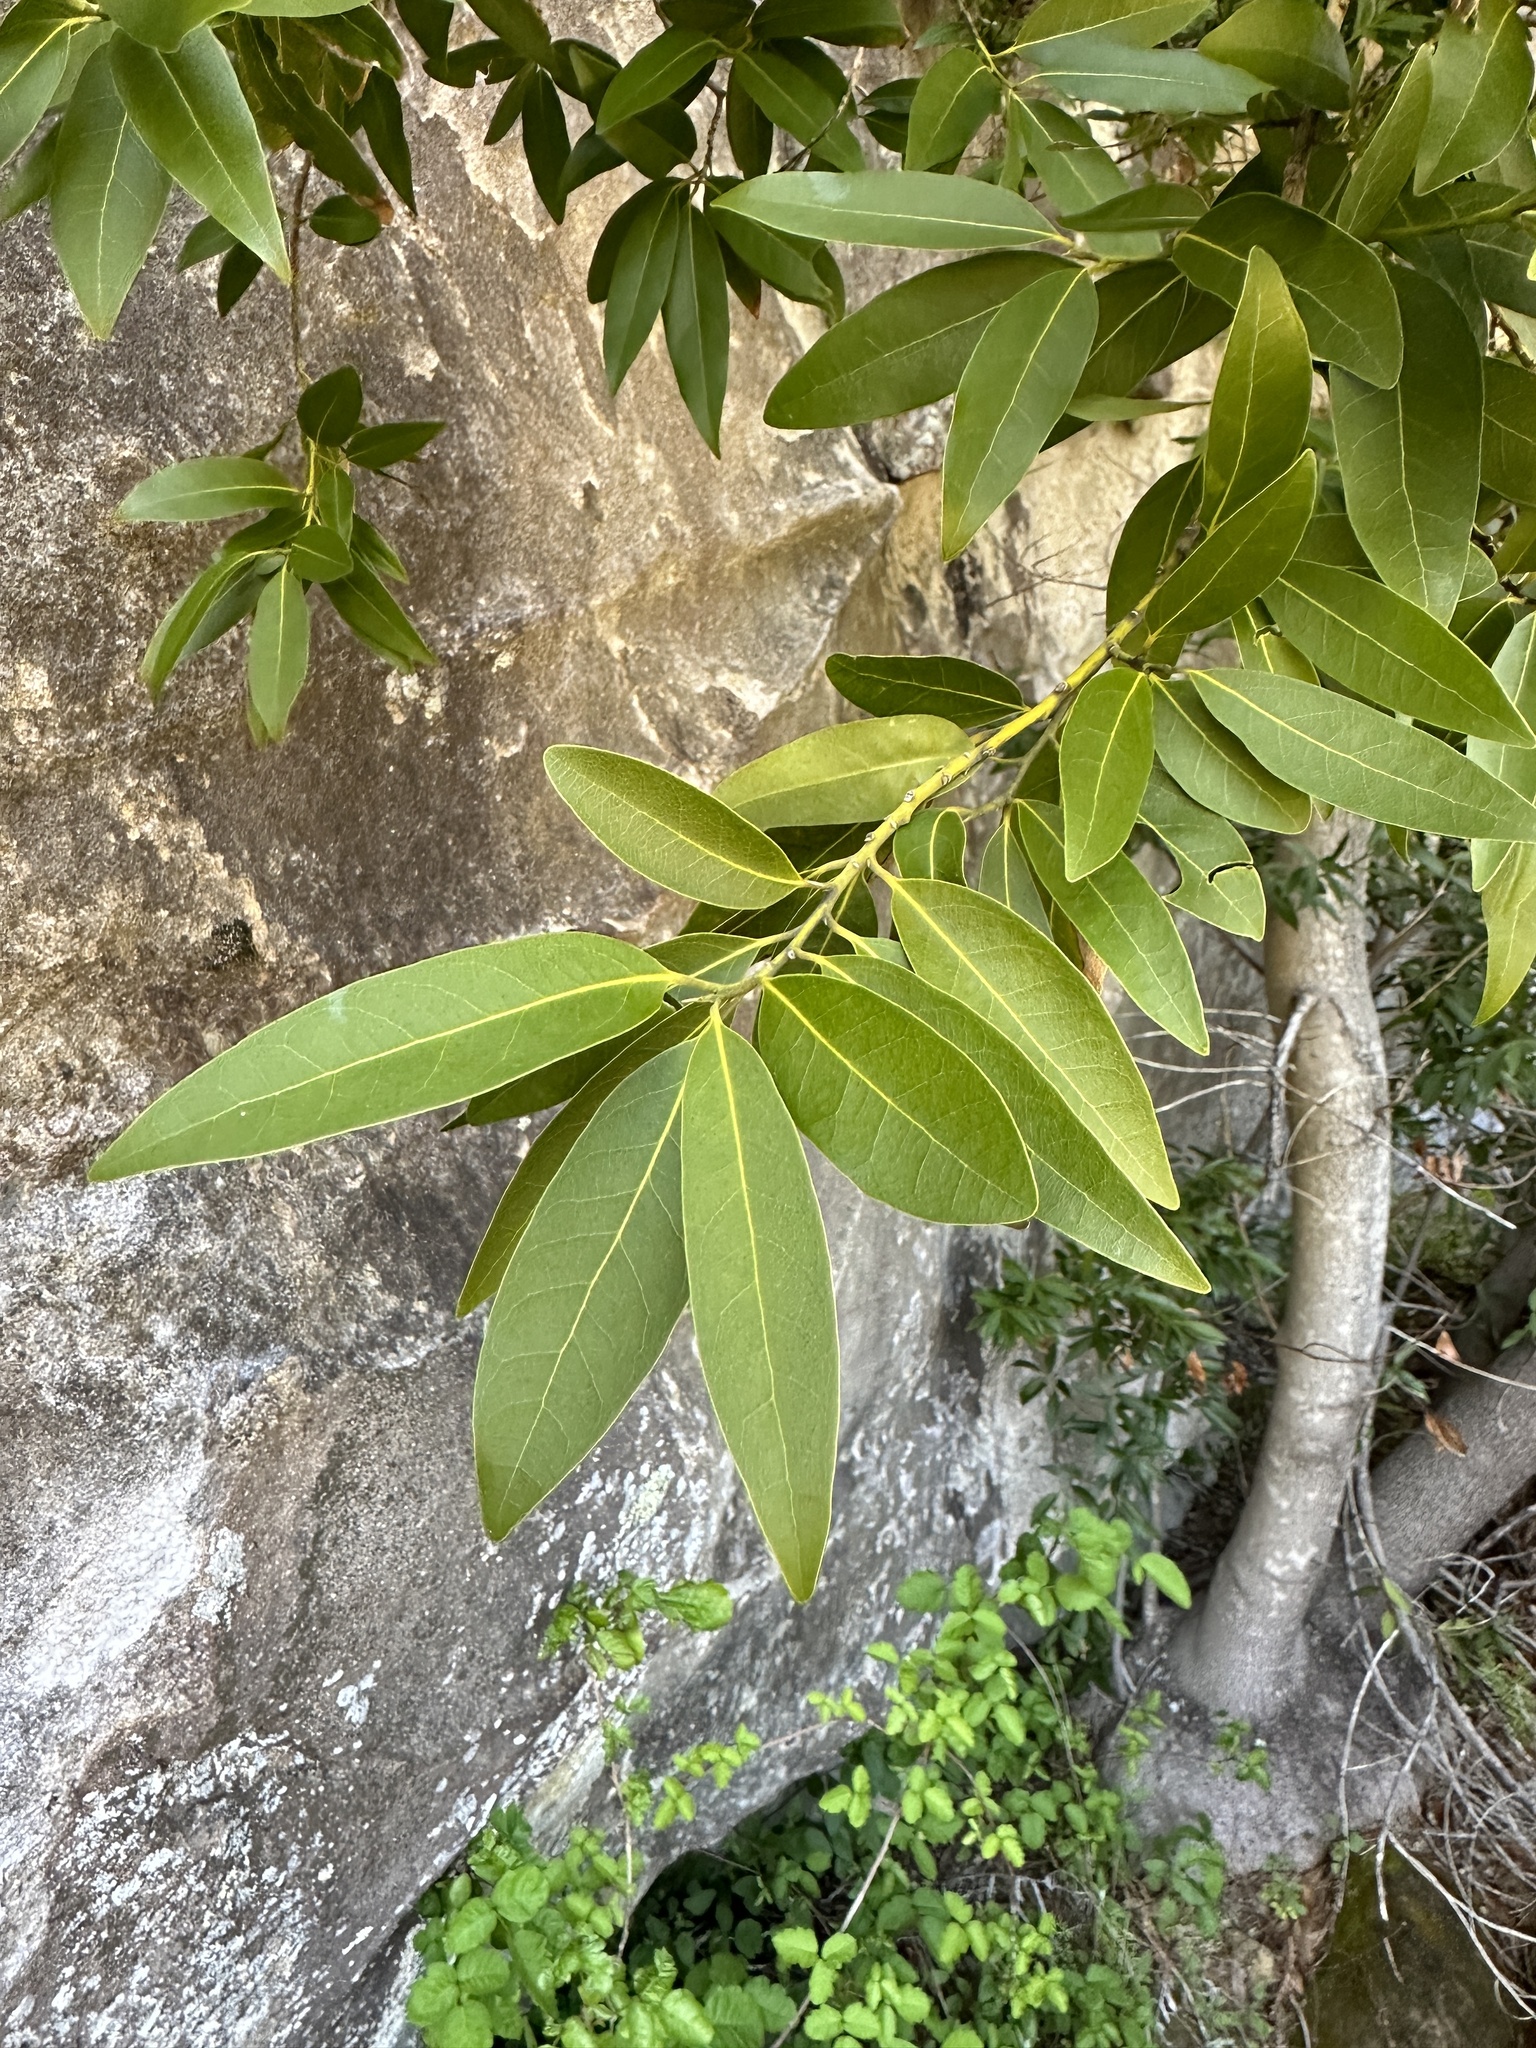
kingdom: Plantae
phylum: Tracheophyta
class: Magnoliopsida
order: Laurales
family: Lauraceae
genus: Umbellularia
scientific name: Umbellularia californica
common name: California bay
